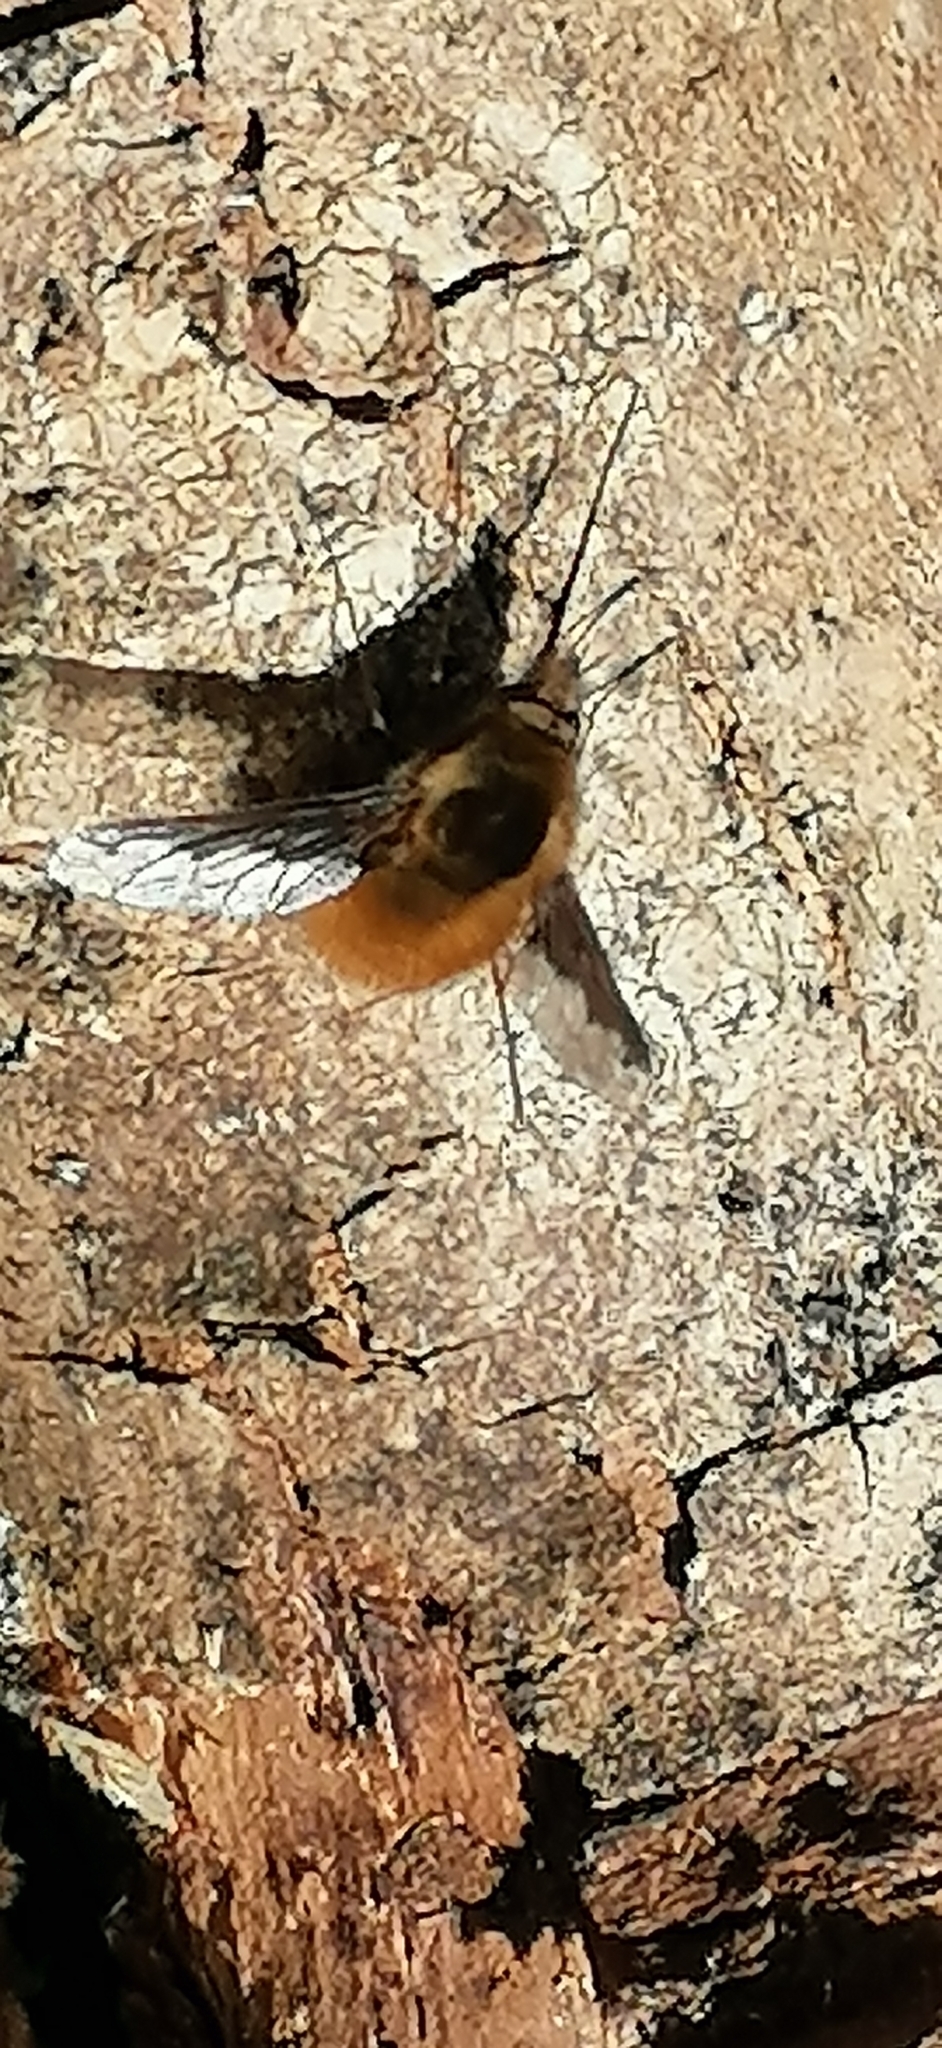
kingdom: Animalia
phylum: Arthropoda
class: Insecta
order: Diptera
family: Bombyliidae
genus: Bombylius
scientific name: Bombylius major
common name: Bee fly
